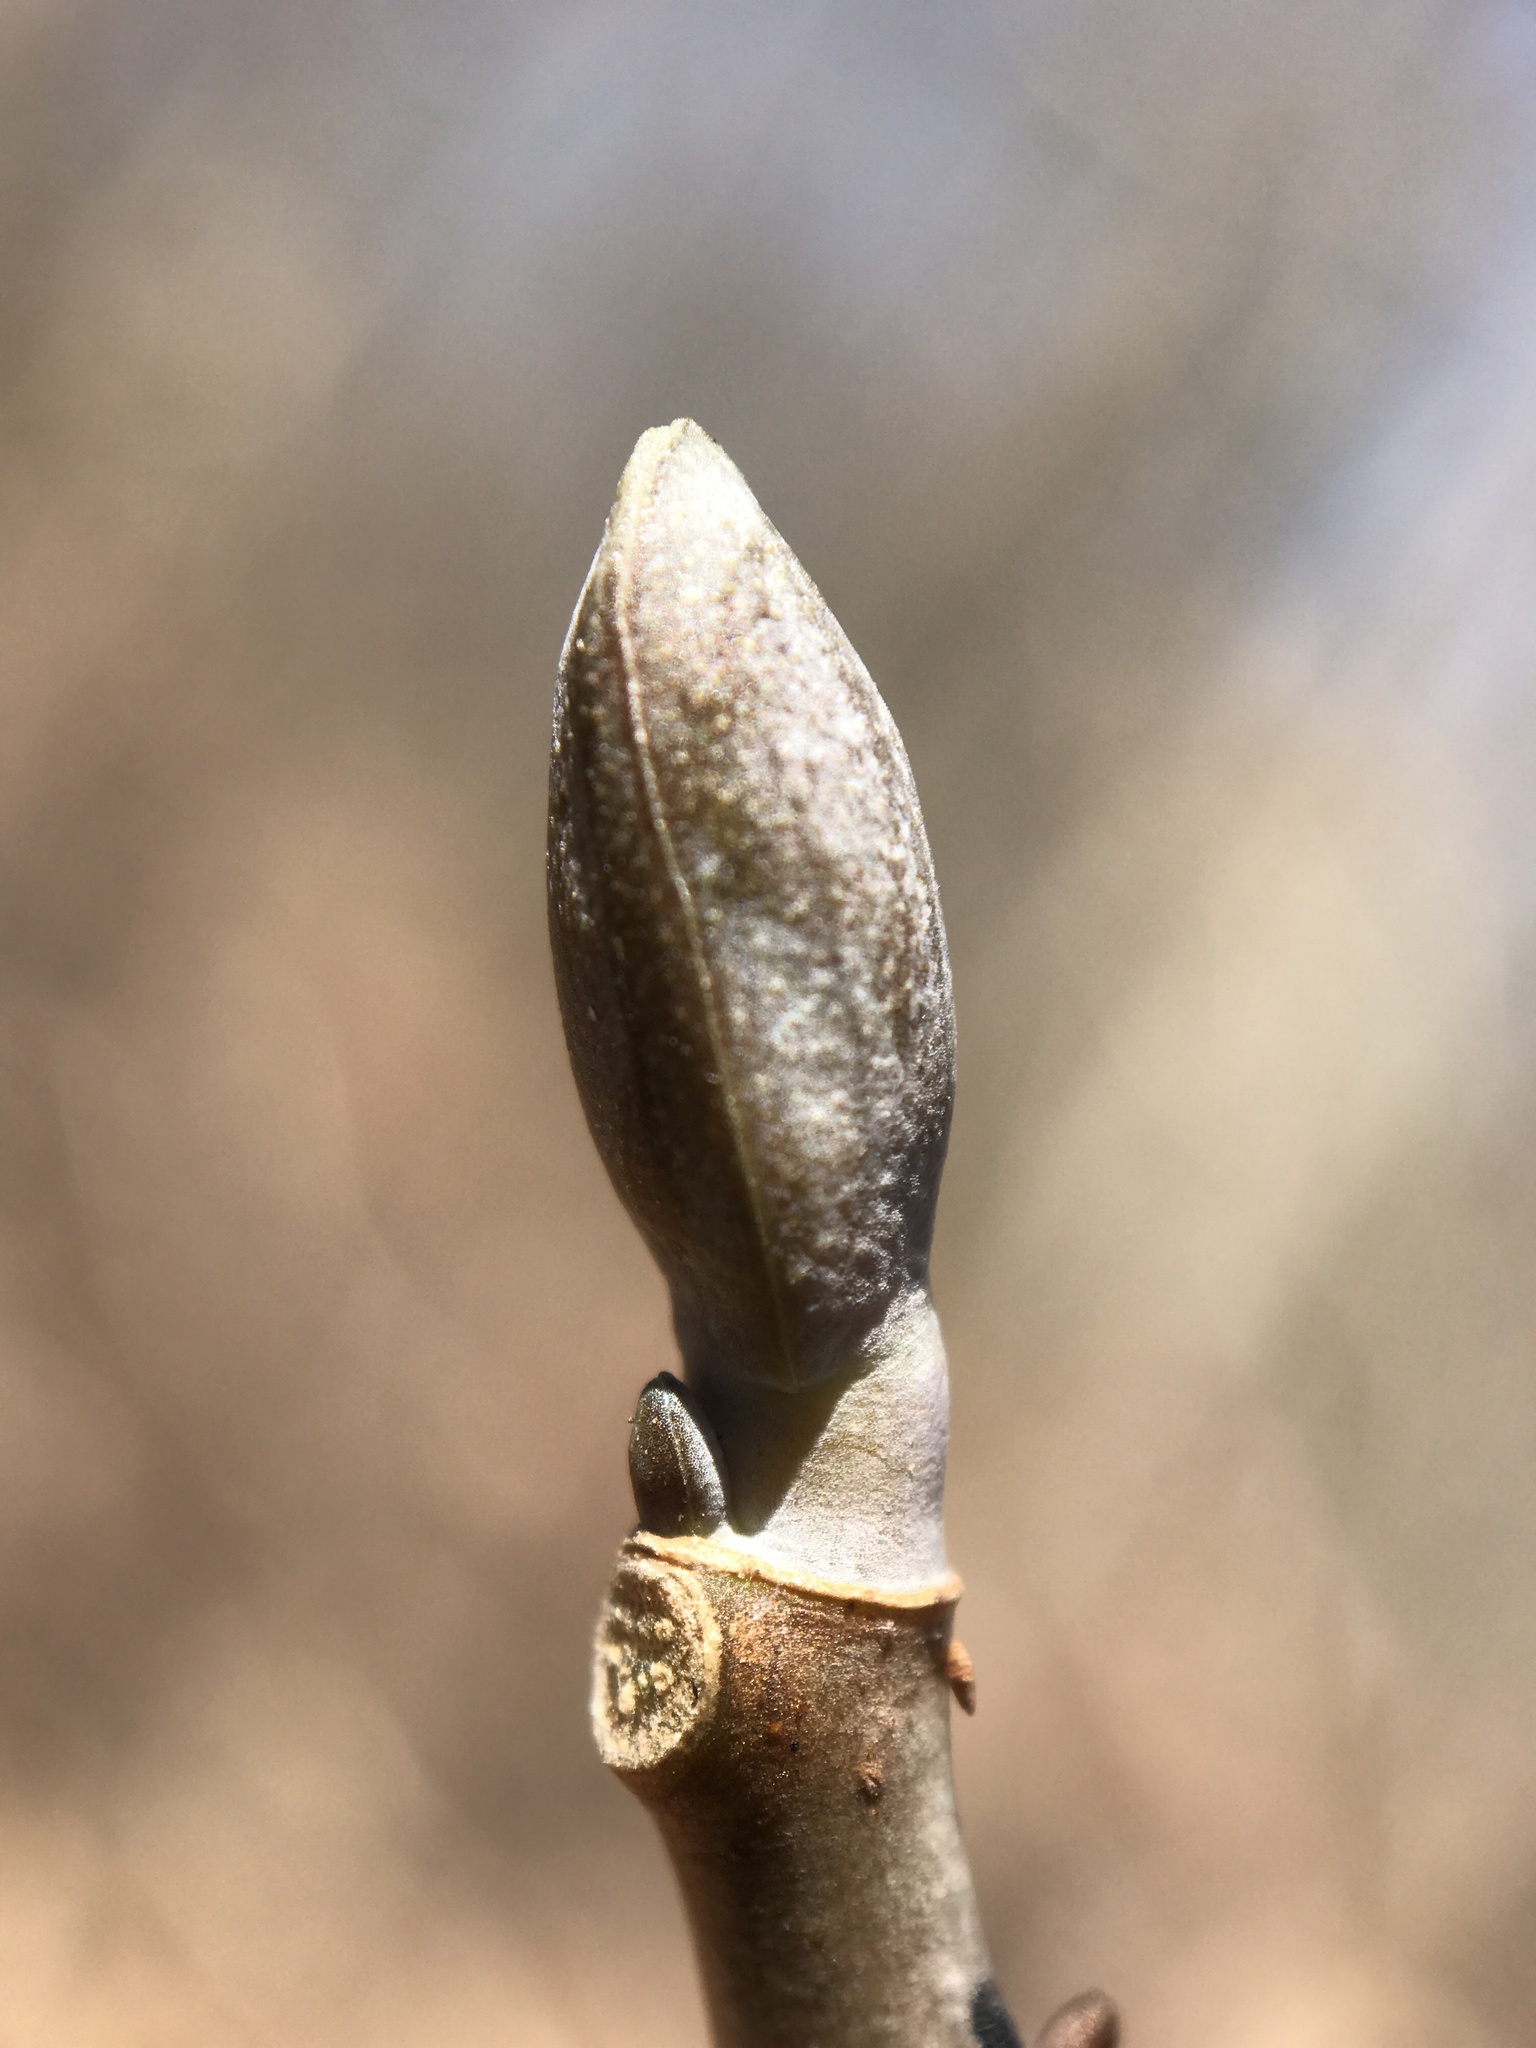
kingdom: Plantae
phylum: Tracheophyta
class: Magnoliopsida
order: Magnoliales
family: Magnoliaceae
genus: Liriodendron
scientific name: Liriodendron tulipifera
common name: Tulip tree
